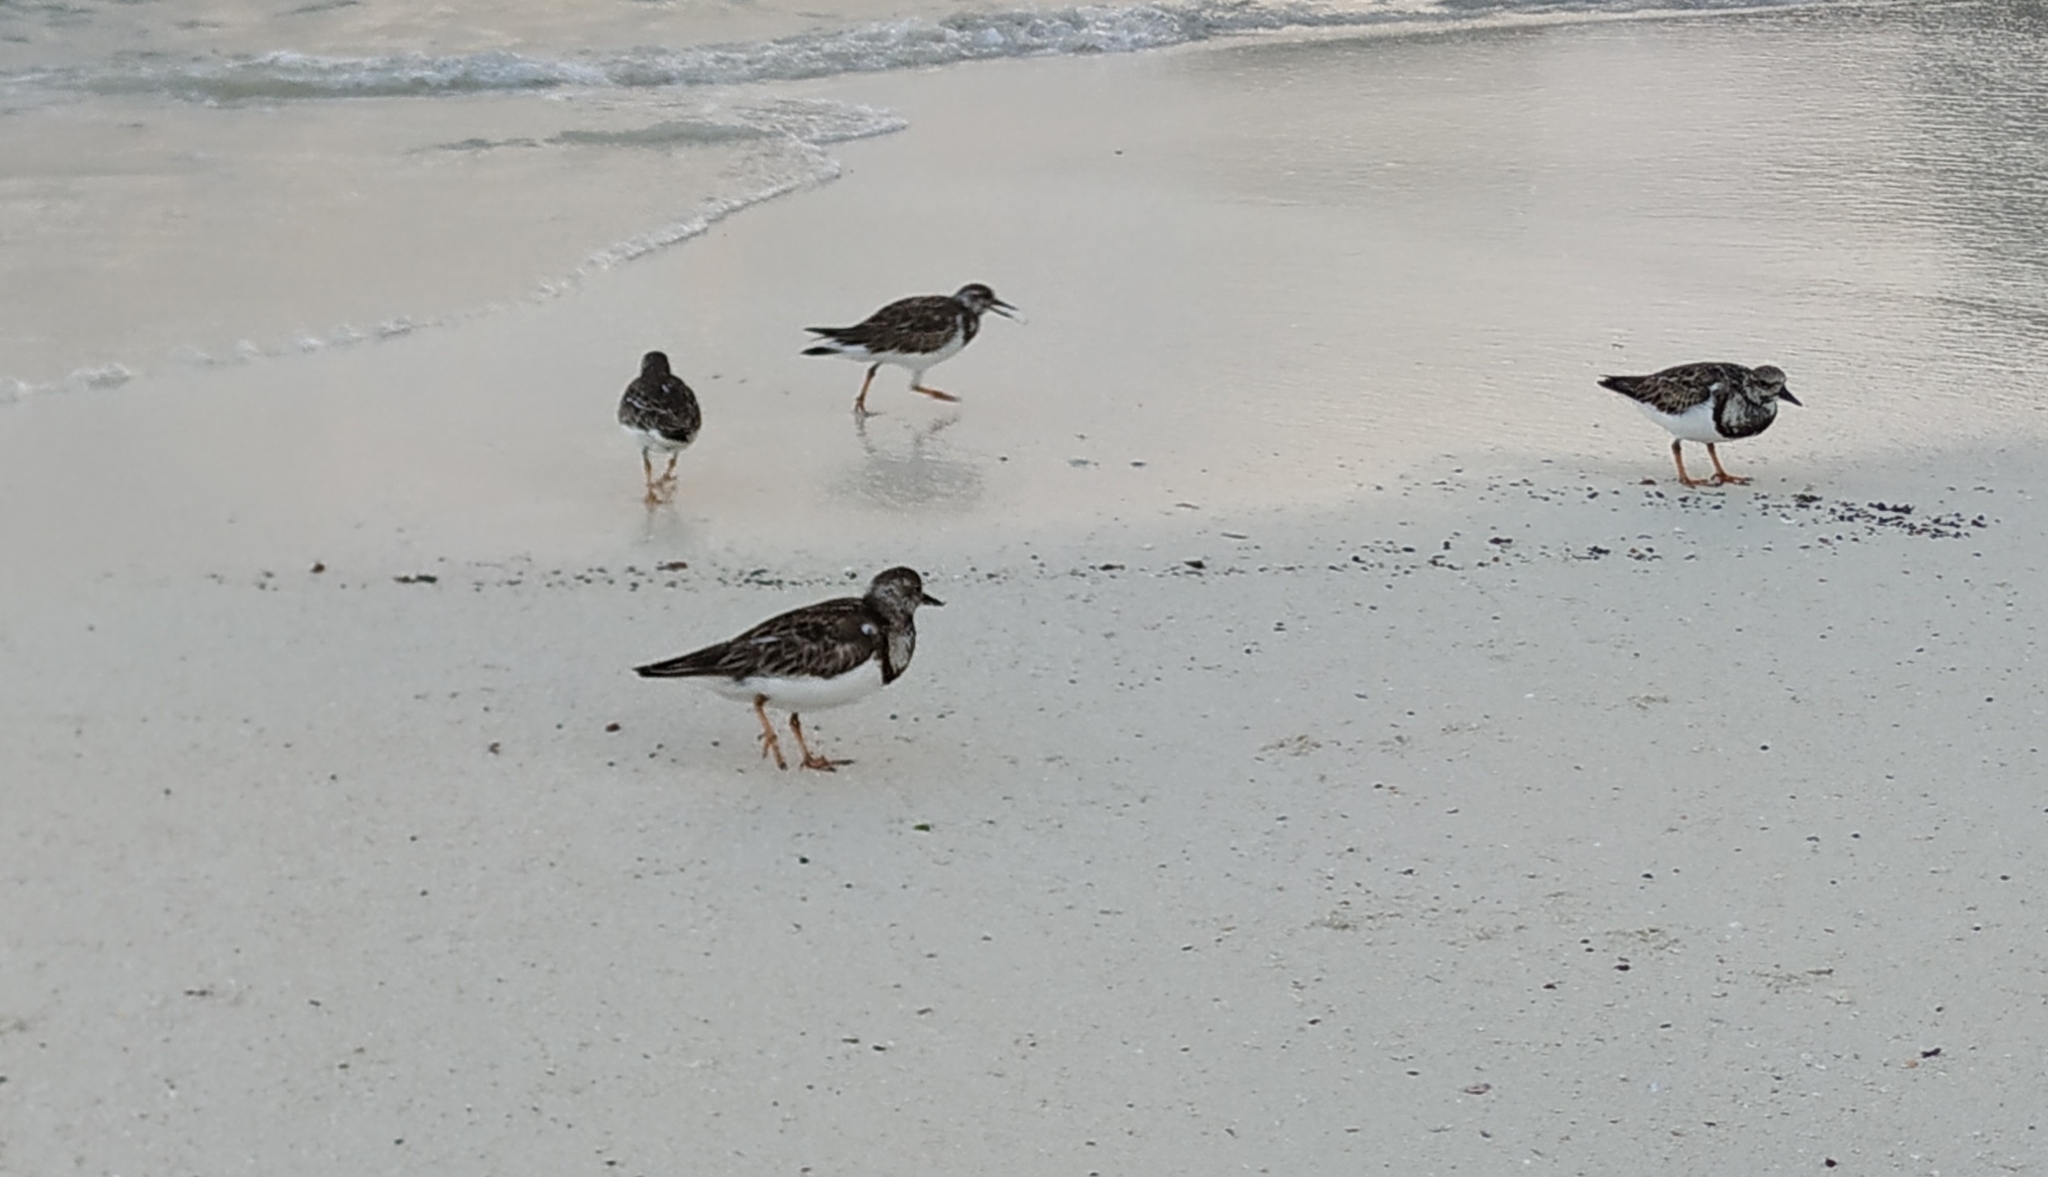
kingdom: Animalia
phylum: Chordata
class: Aves
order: Charadriiformes
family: Scolopacidae
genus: Arenaria
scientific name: Arenaria interpres
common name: Ruddy turnstone
